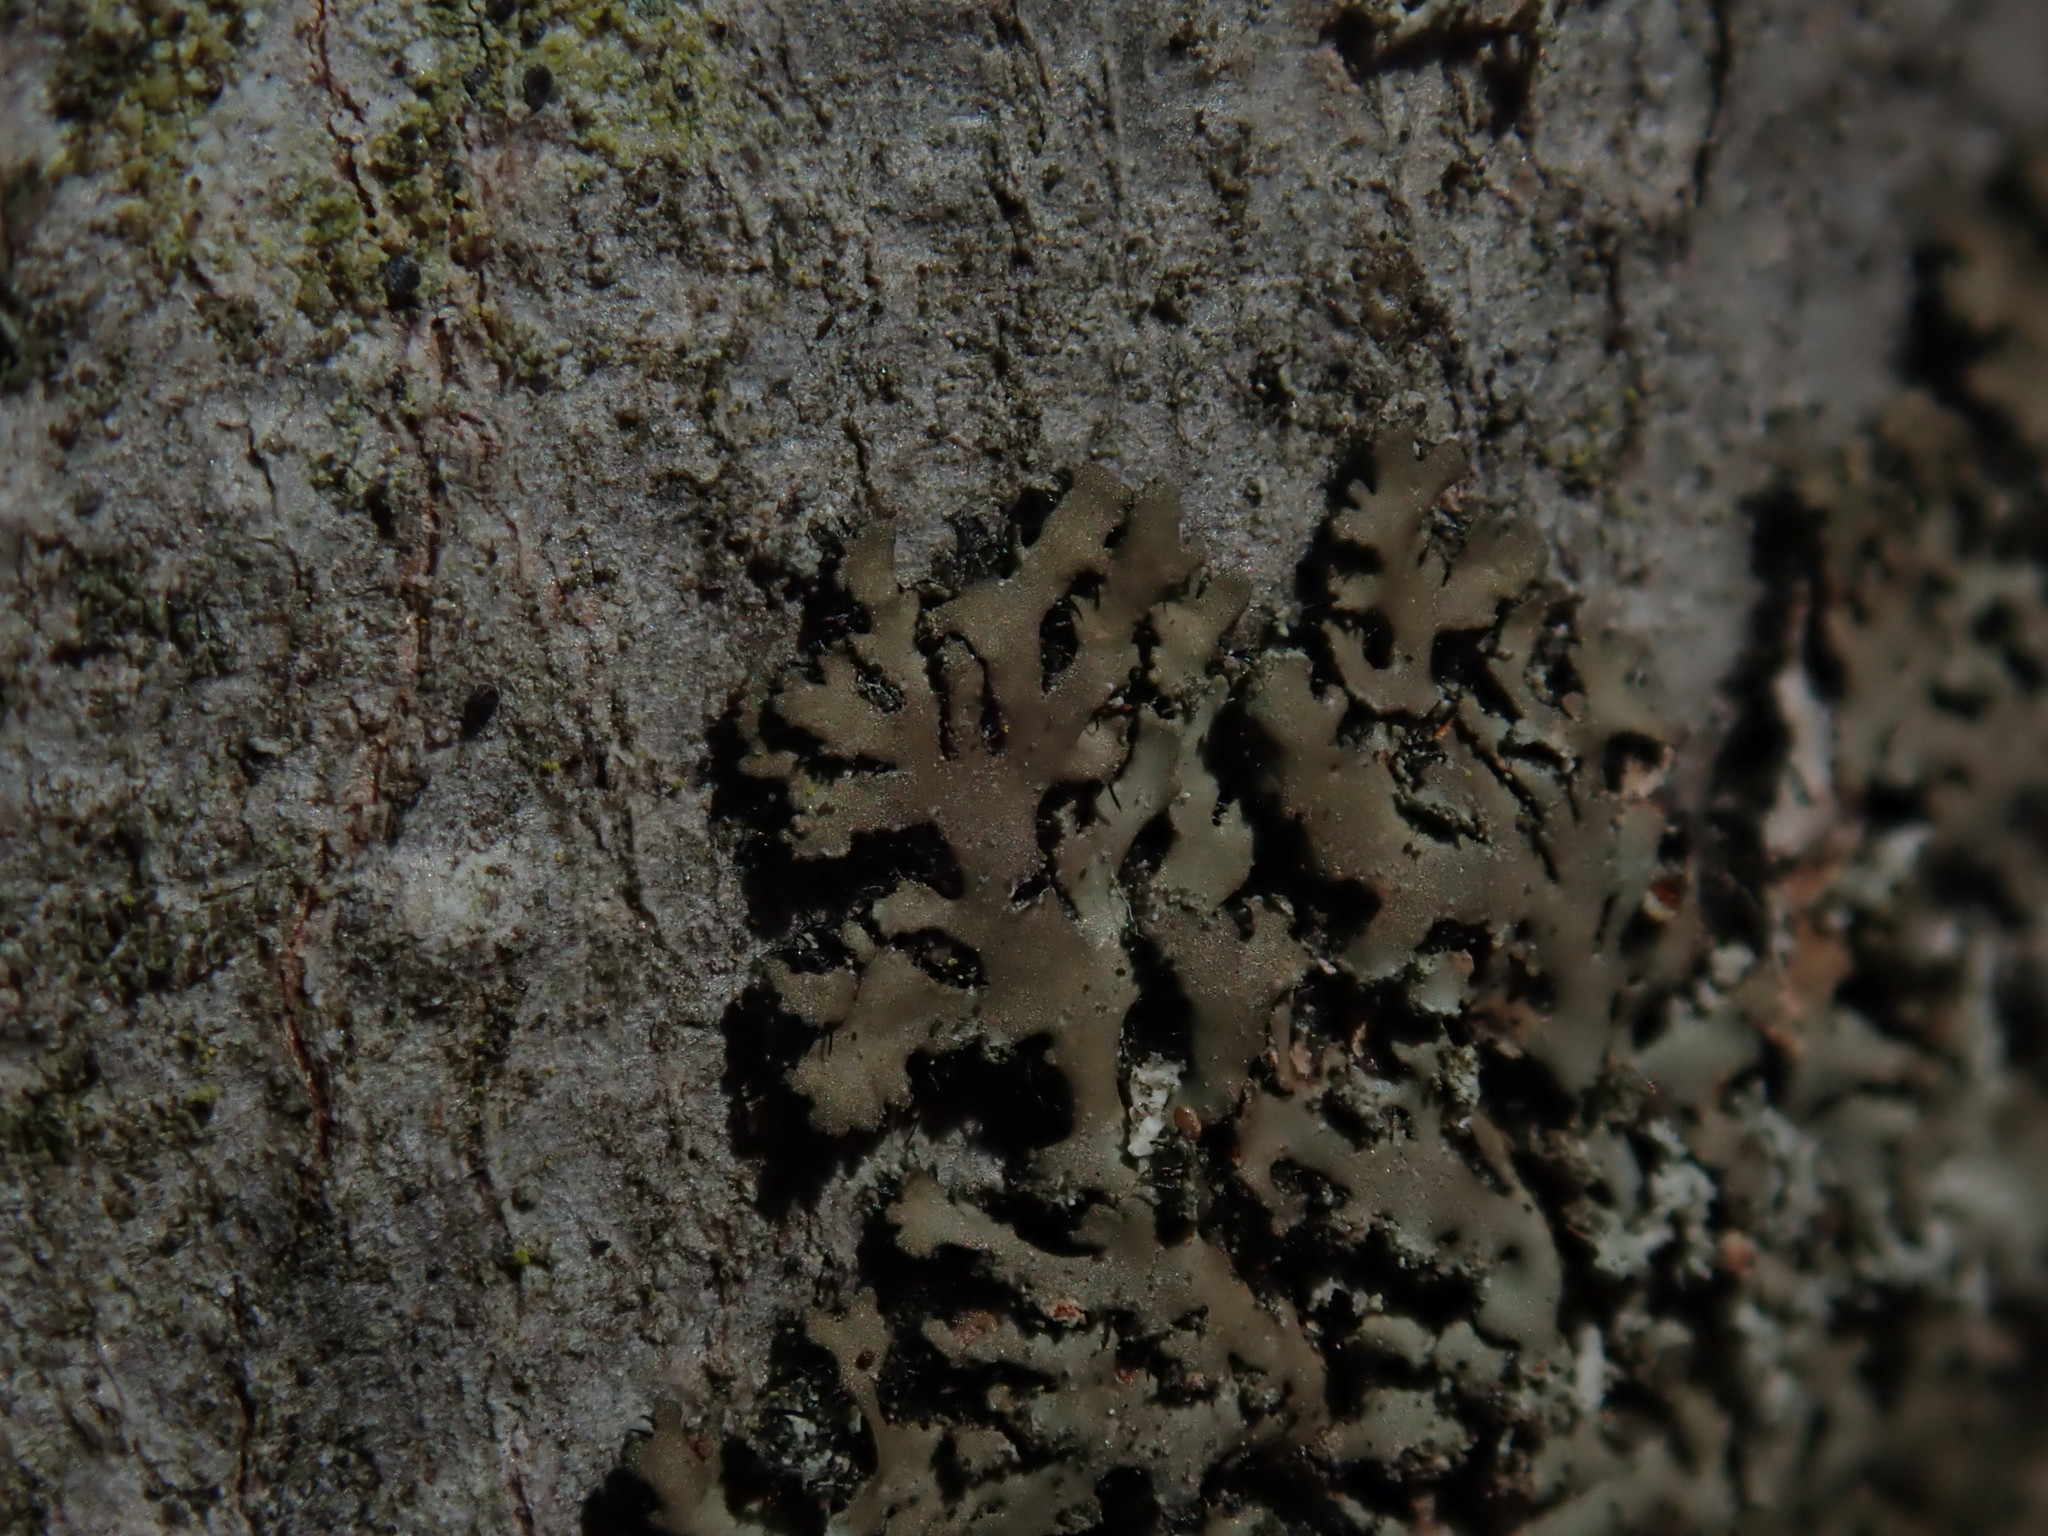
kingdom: Fungi
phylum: Ascomycota
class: Lecanoromycetes
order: Caliciales
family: Physciaceae
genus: Phaeophyscia
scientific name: Phaeophyscia rubropulchra
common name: Orange-cored shadow lichen
